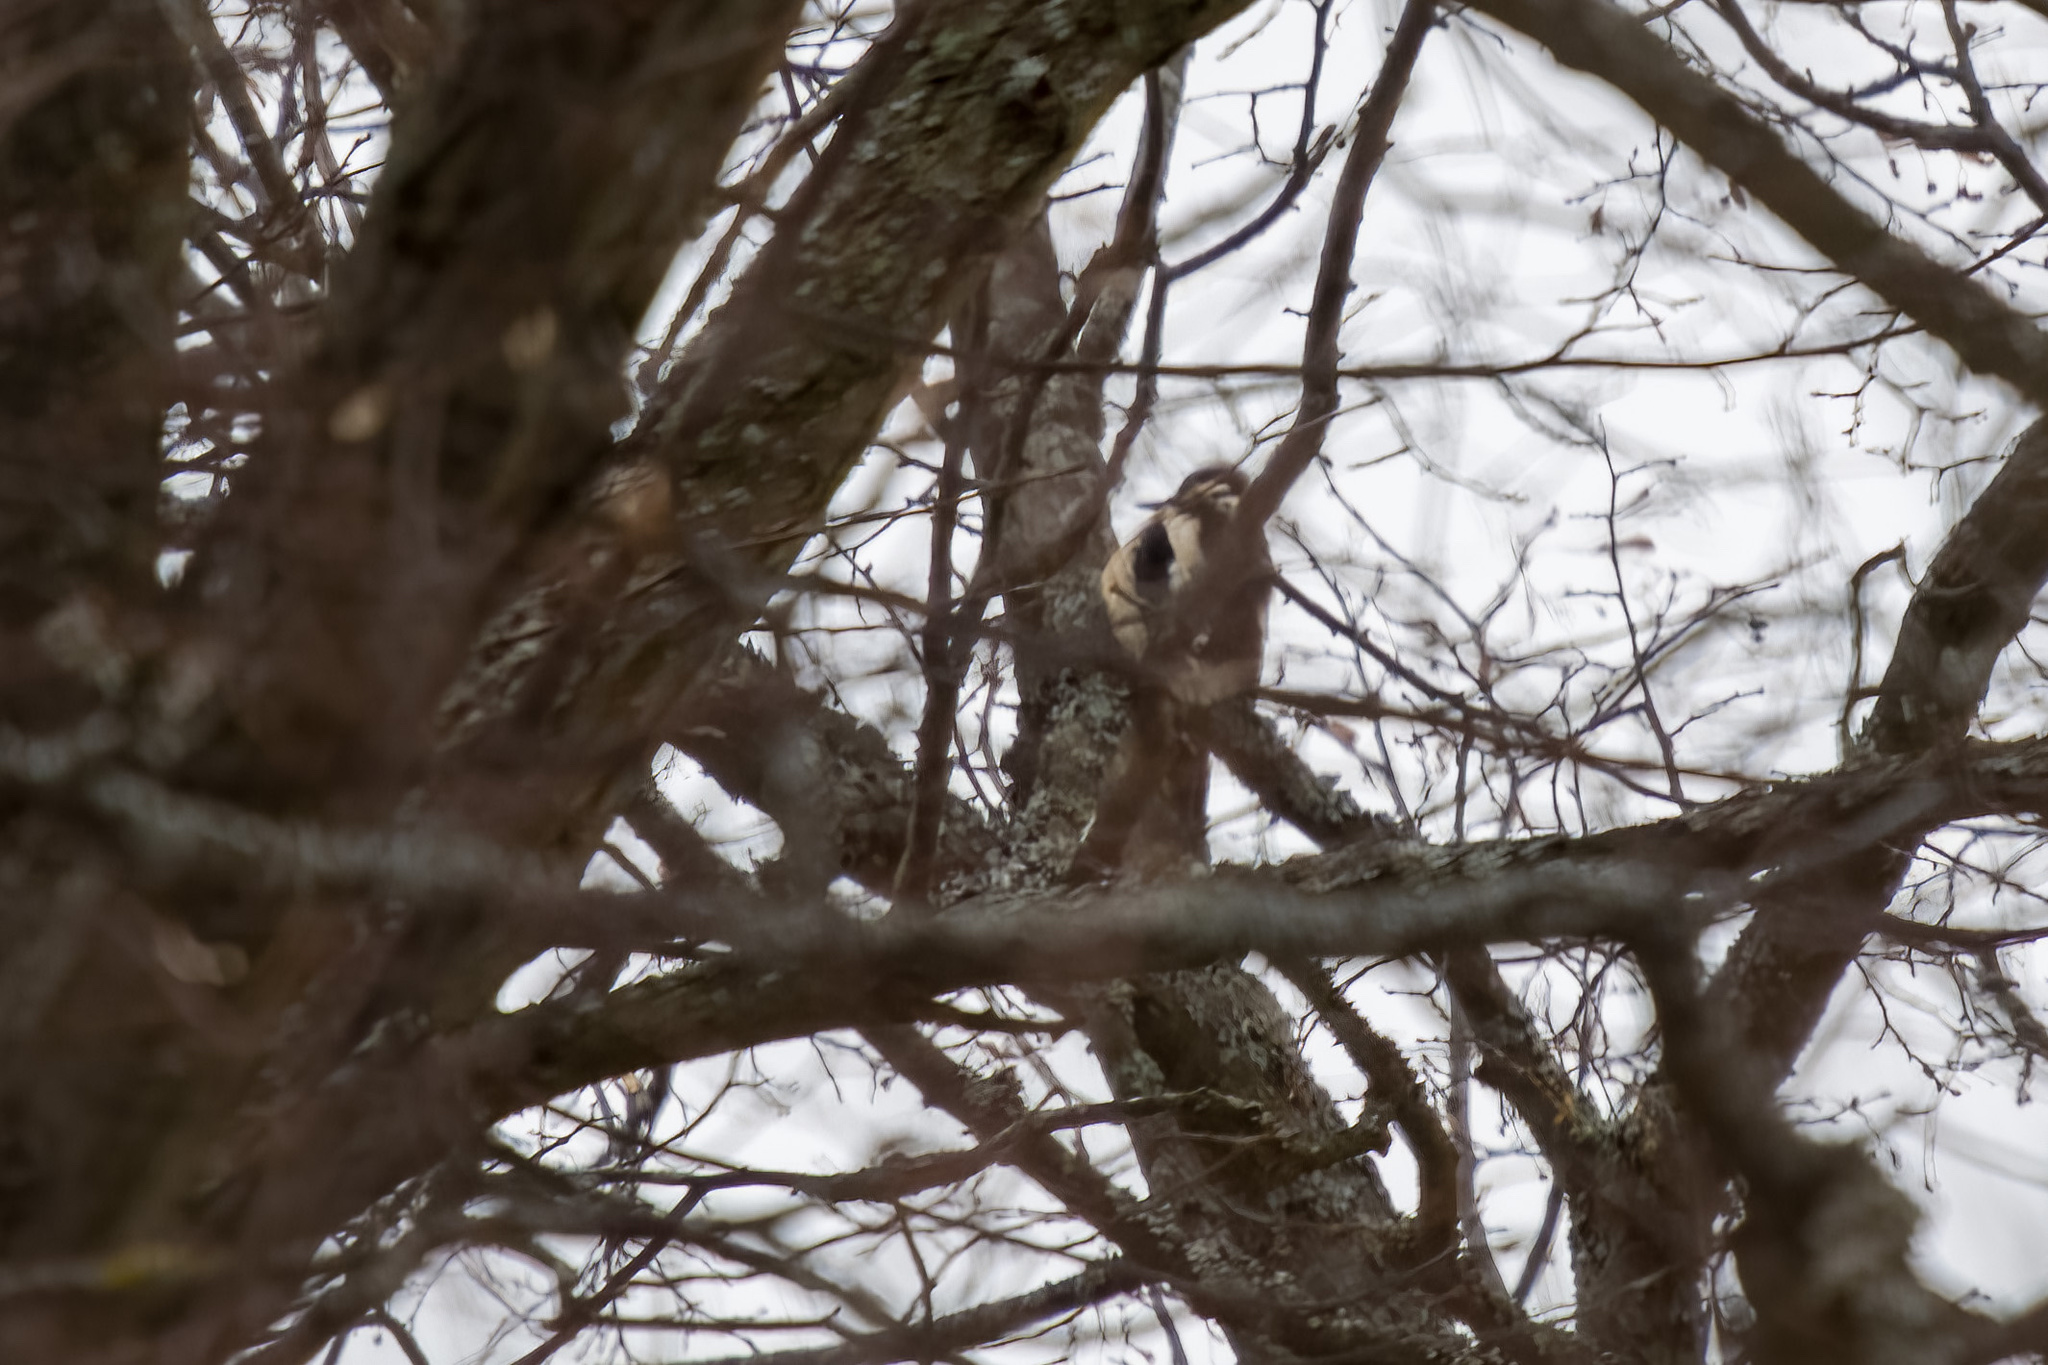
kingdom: Animalia
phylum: Chordata
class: Aves
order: Piciformes
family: Picidae
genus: Dendrocopos
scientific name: Dendrocopos major
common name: Great spotted woodpecker
